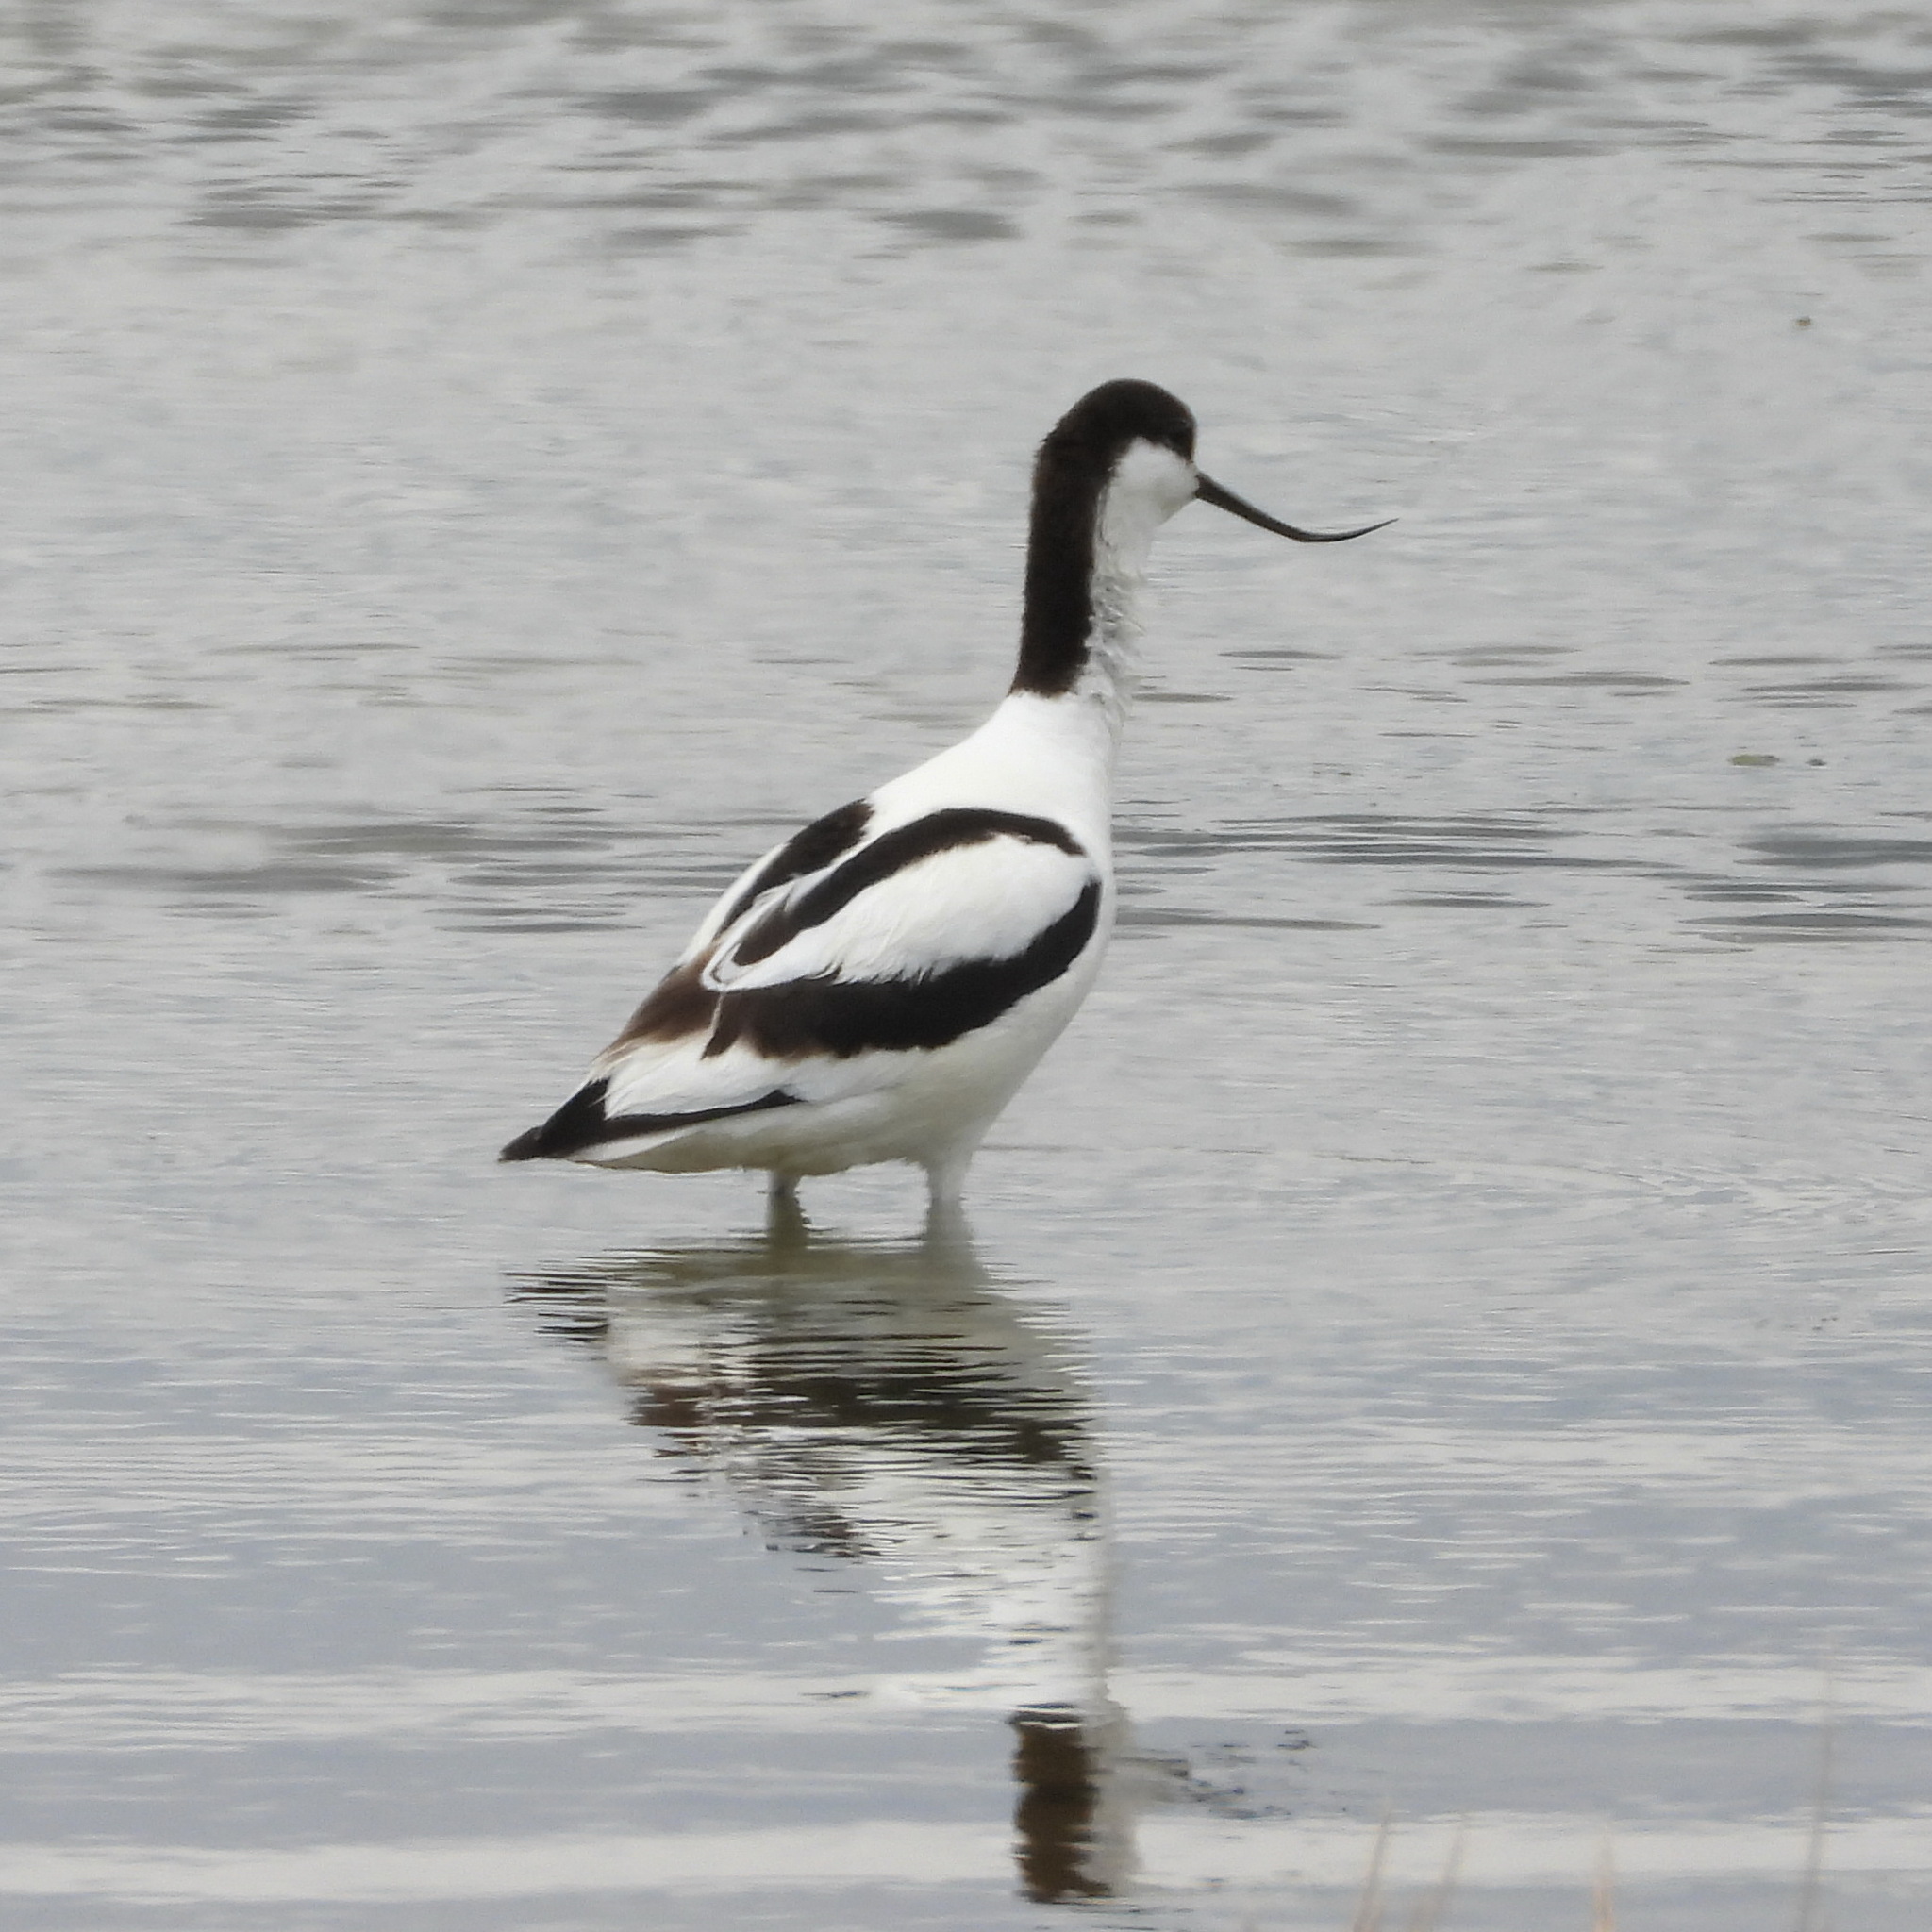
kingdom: Animalia
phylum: Chordata
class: Aves
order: Charadriiformes
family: Recurvirostridae
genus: Recurvirostra
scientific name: Recurvirostra avosetta
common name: Pied avocet
